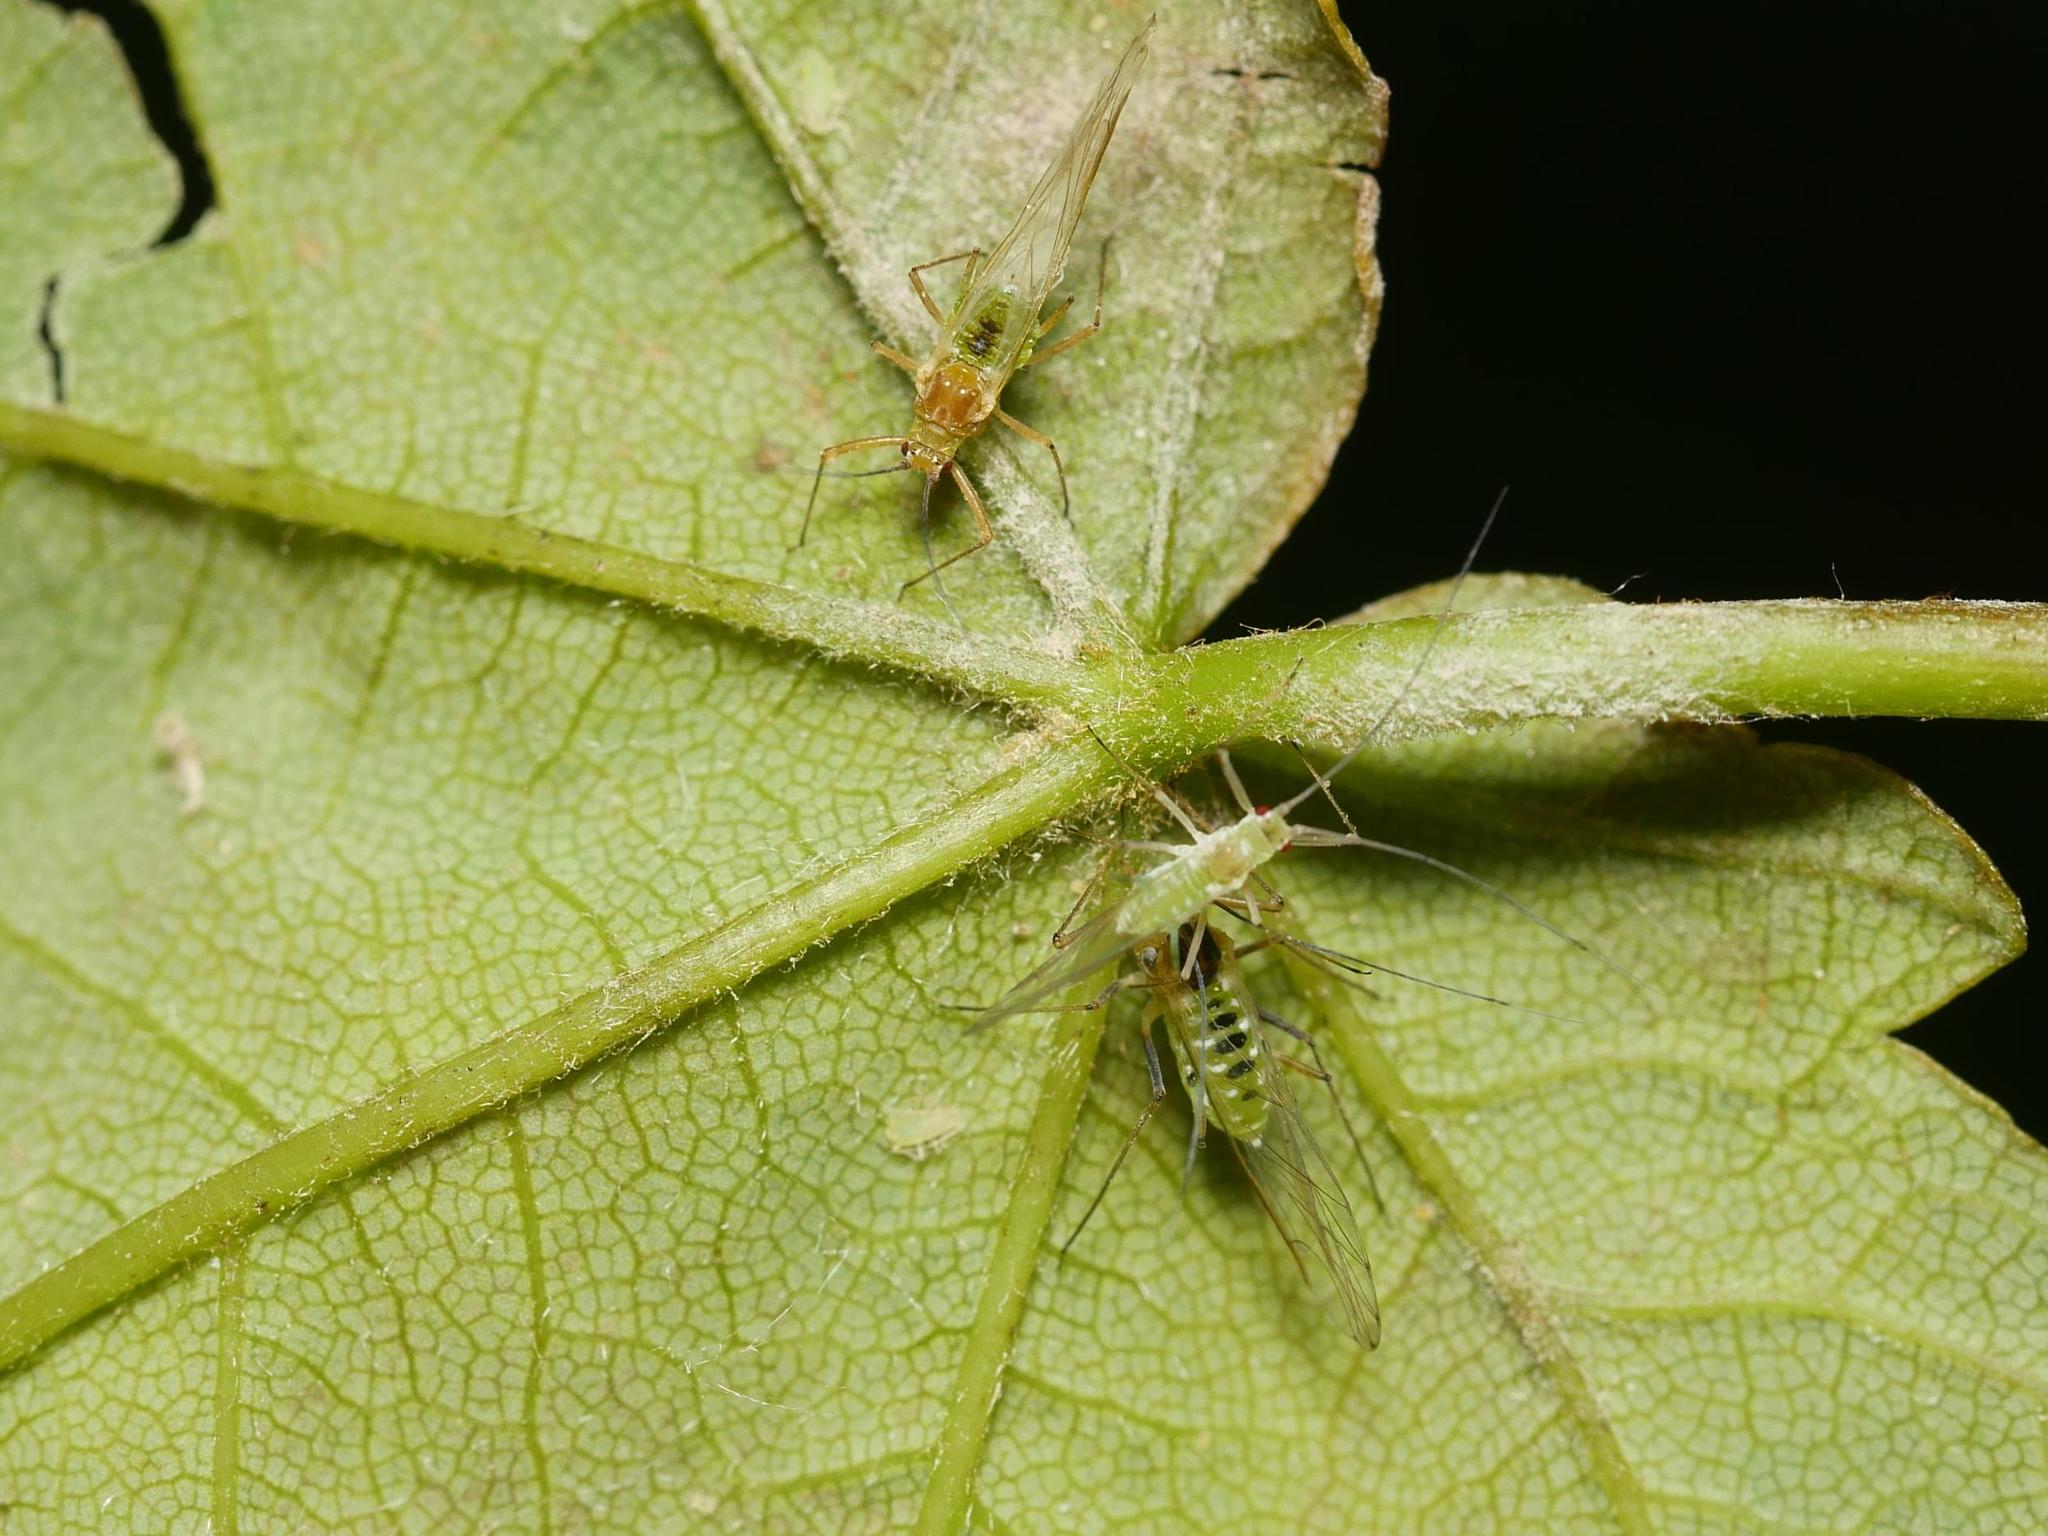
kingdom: Animalia
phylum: Arthropoda
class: Insecta
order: Hemiptera
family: Aphididae
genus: Drepanosiphum
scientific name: Drepanosiphum platanoidis
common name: Common sycamore aphid
